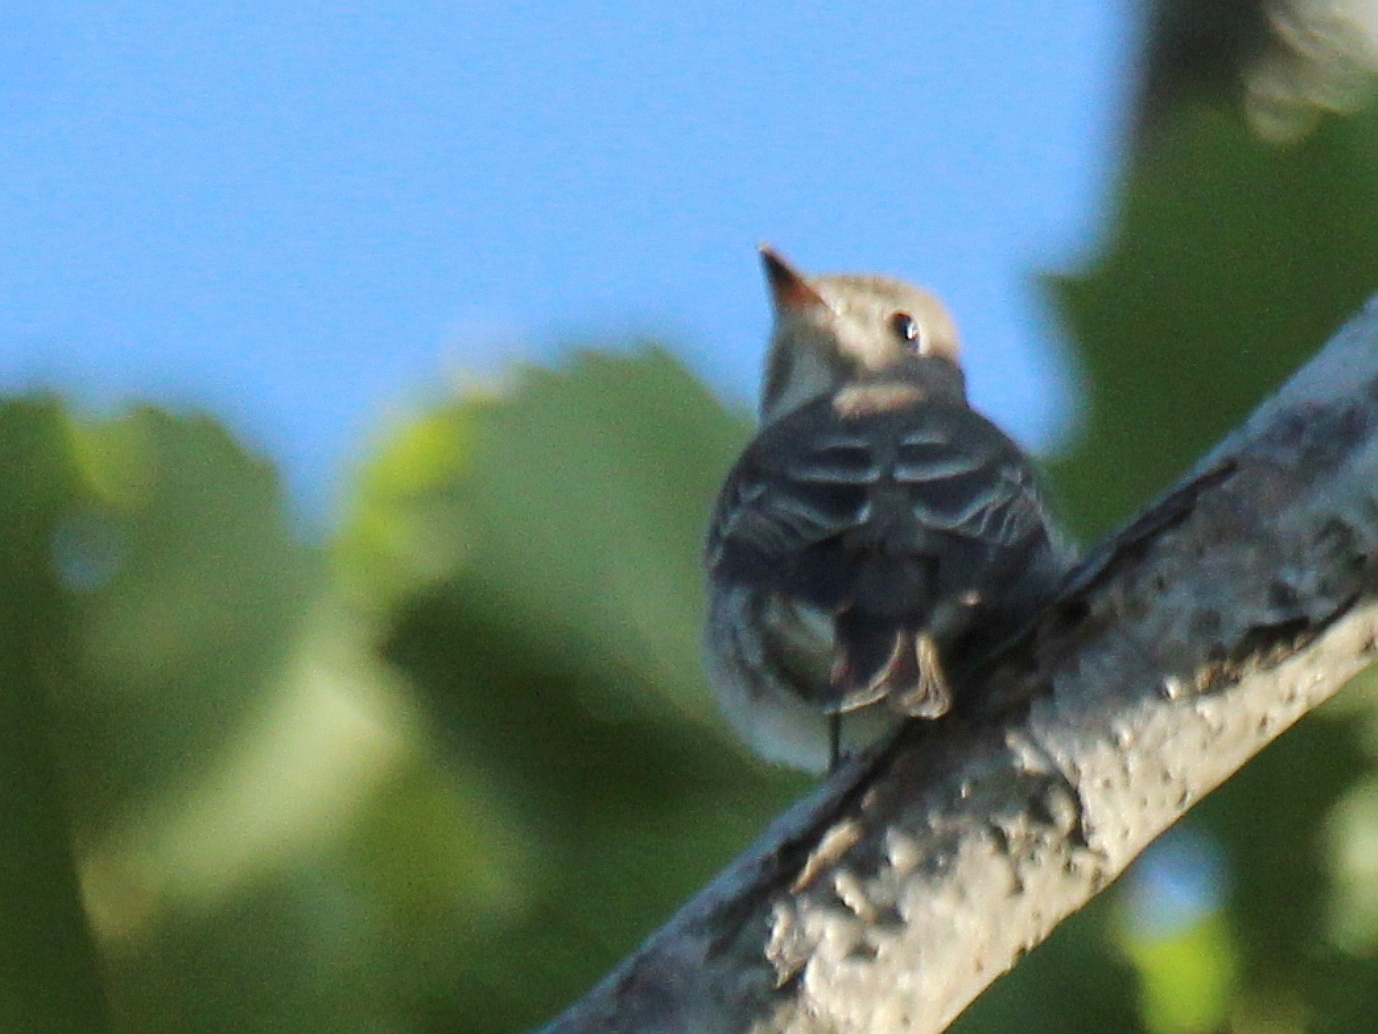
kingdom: Animalia
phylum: Chordata
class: Aves
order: Passeriformes
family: Muscicapidae
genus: Muscicapa
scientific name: Muscicapa latirostris
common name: Asian brown flycatcher
